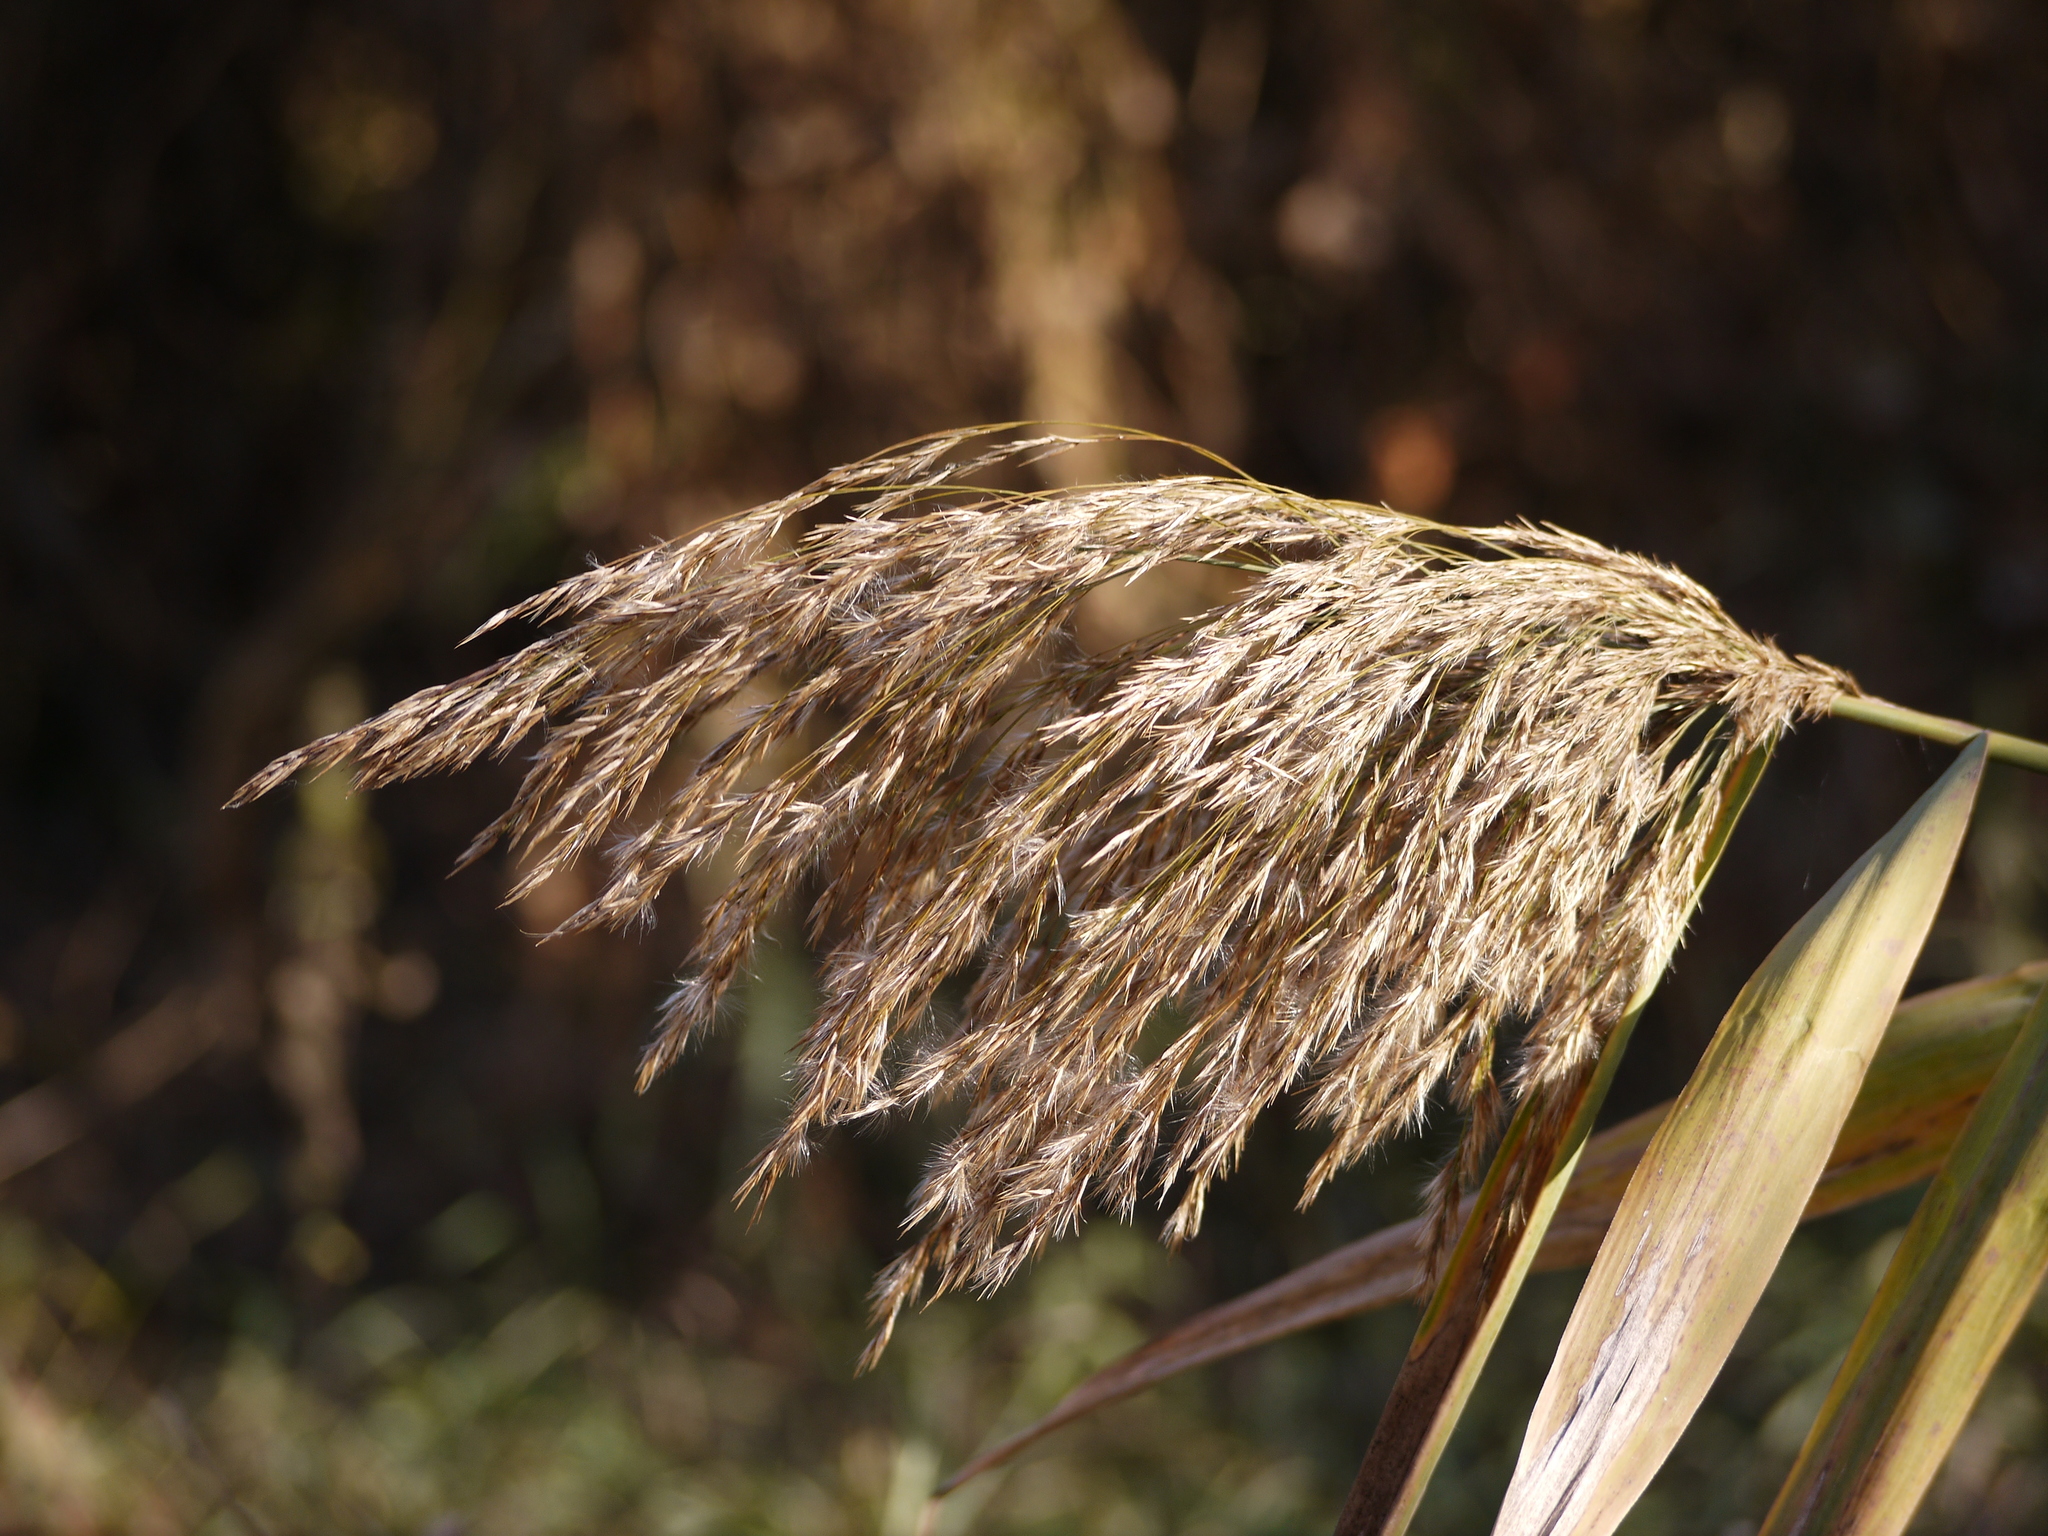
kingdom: Plantae
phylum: Tracheophyta
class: Liliopsida
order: Poales
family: Poaceae
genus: Phragmites
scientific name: Phragmites australis
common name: Common reed
